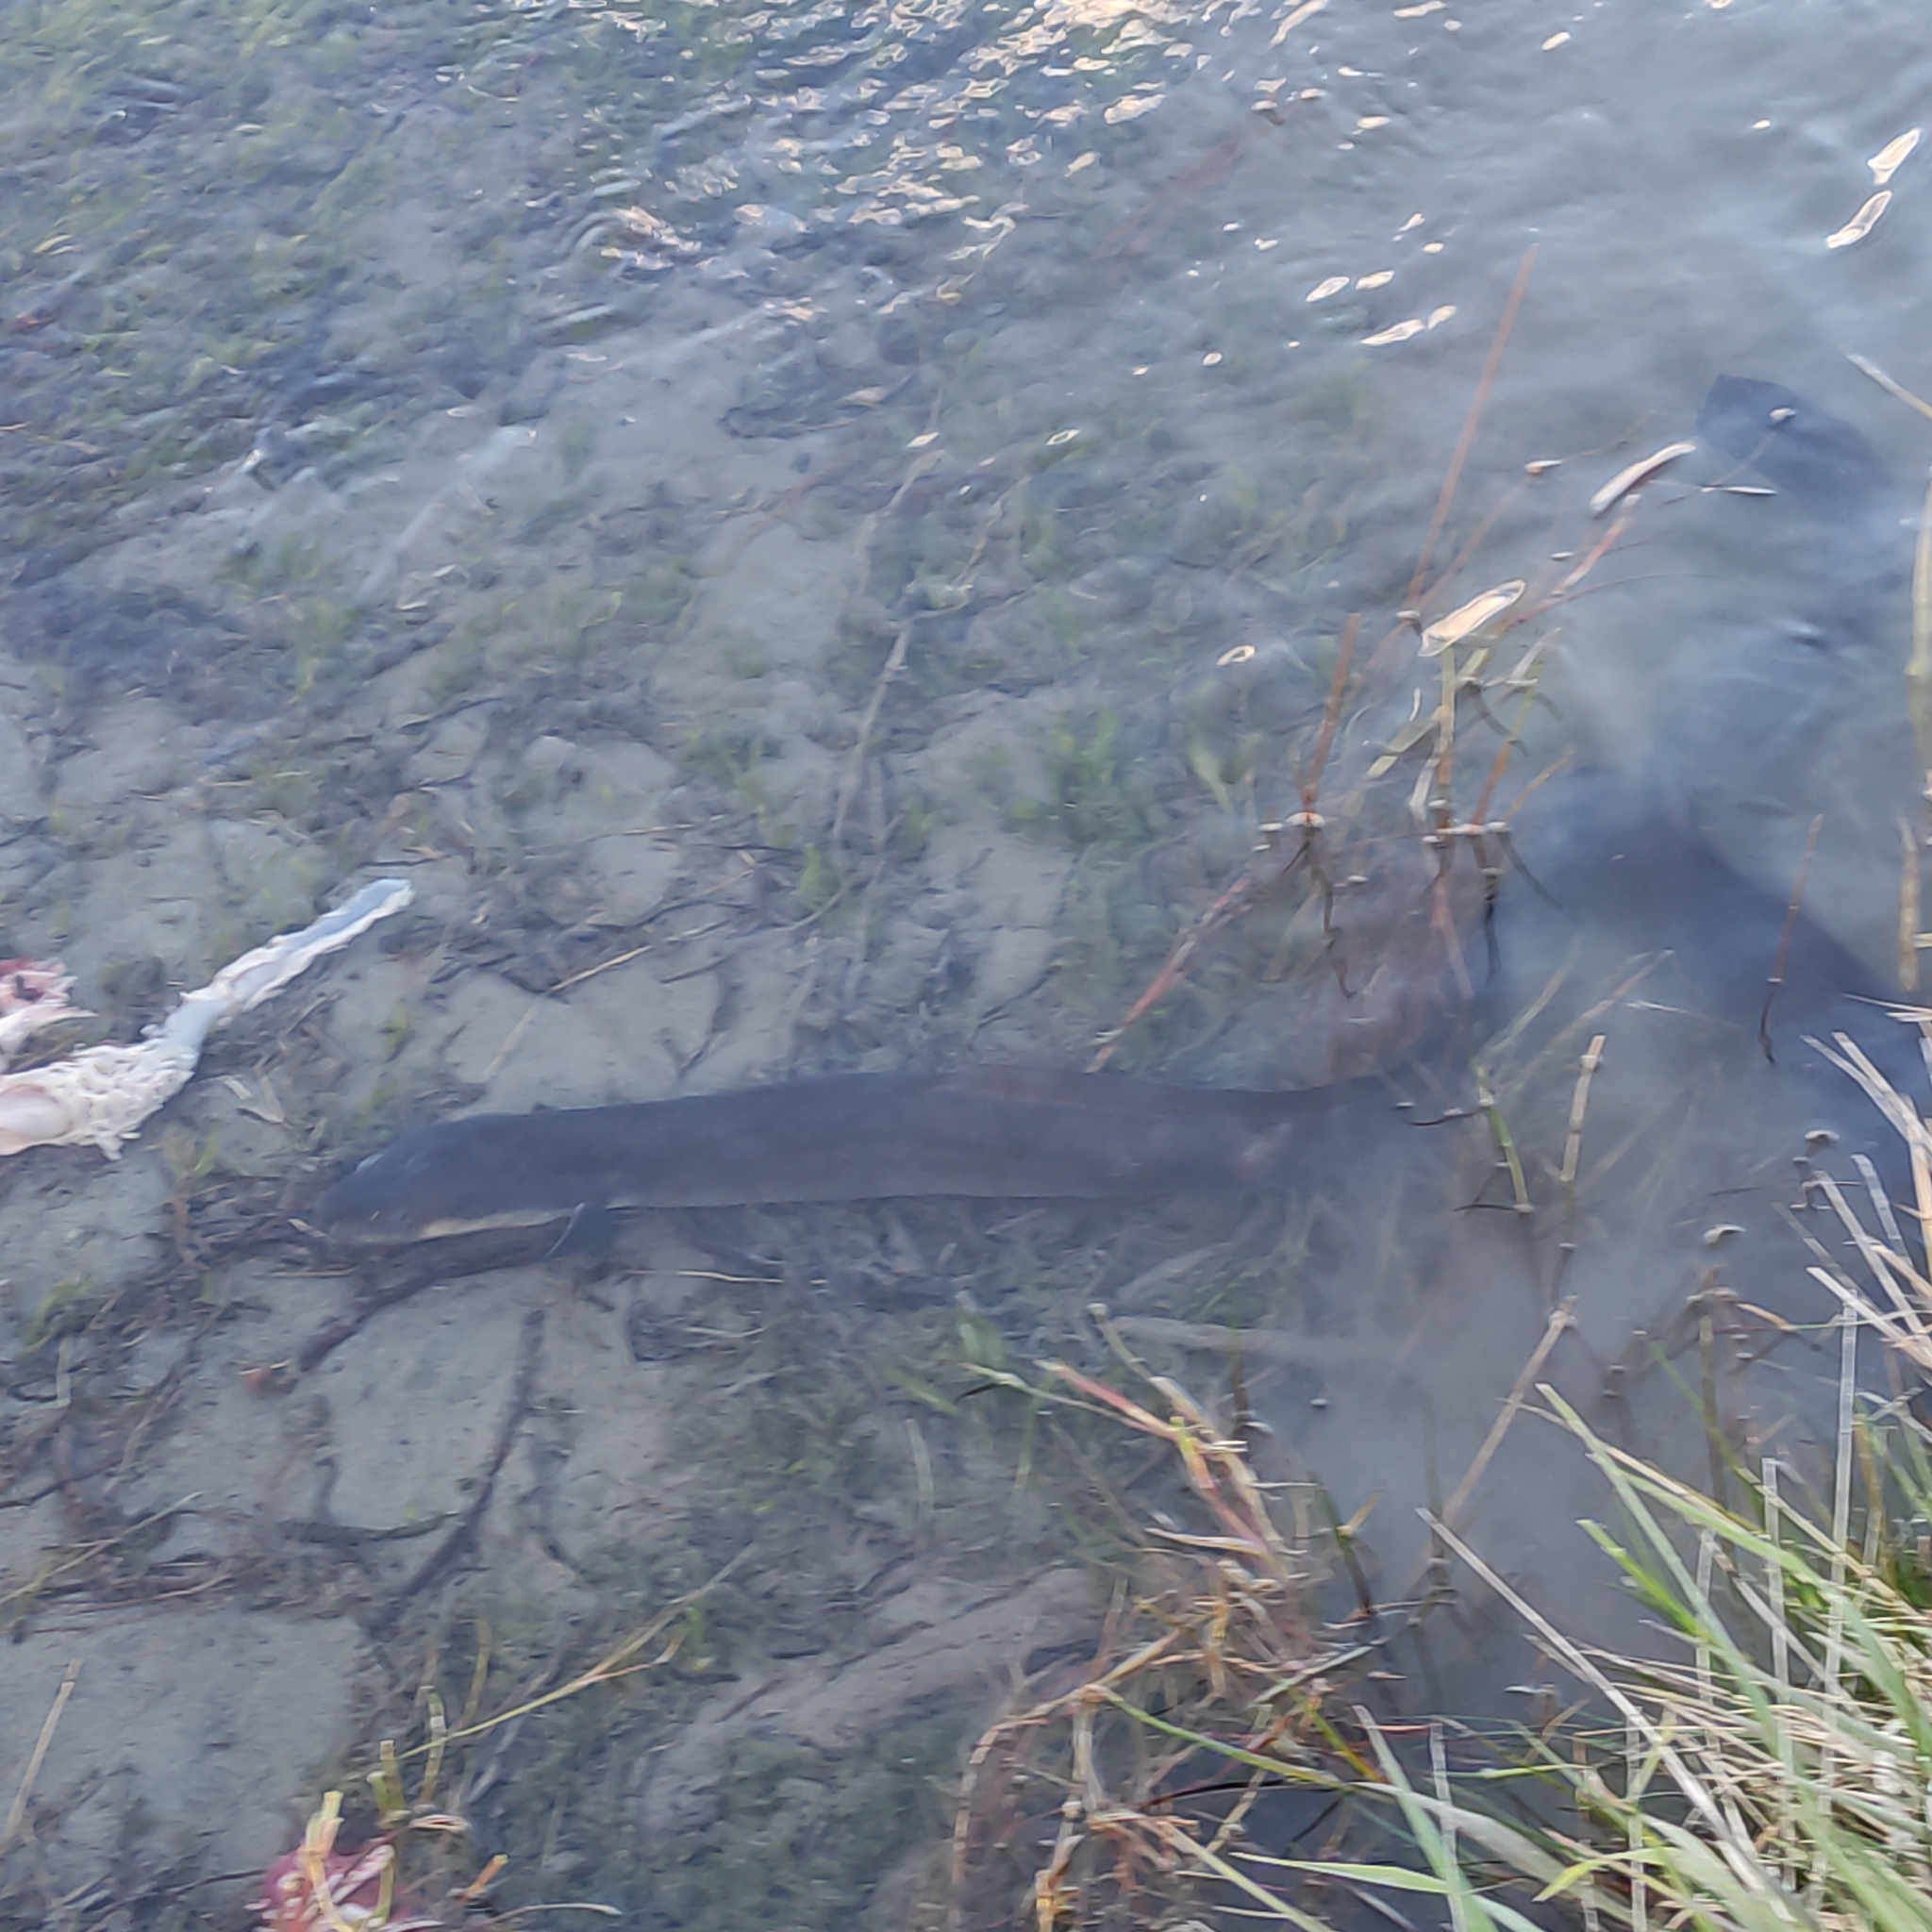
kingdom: Animalia
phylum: Chordata
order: Anguilliformes
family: Anguillidae
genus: Anguilla
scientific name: Anguilla dieffenbachii
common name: New zealand longfin eel
